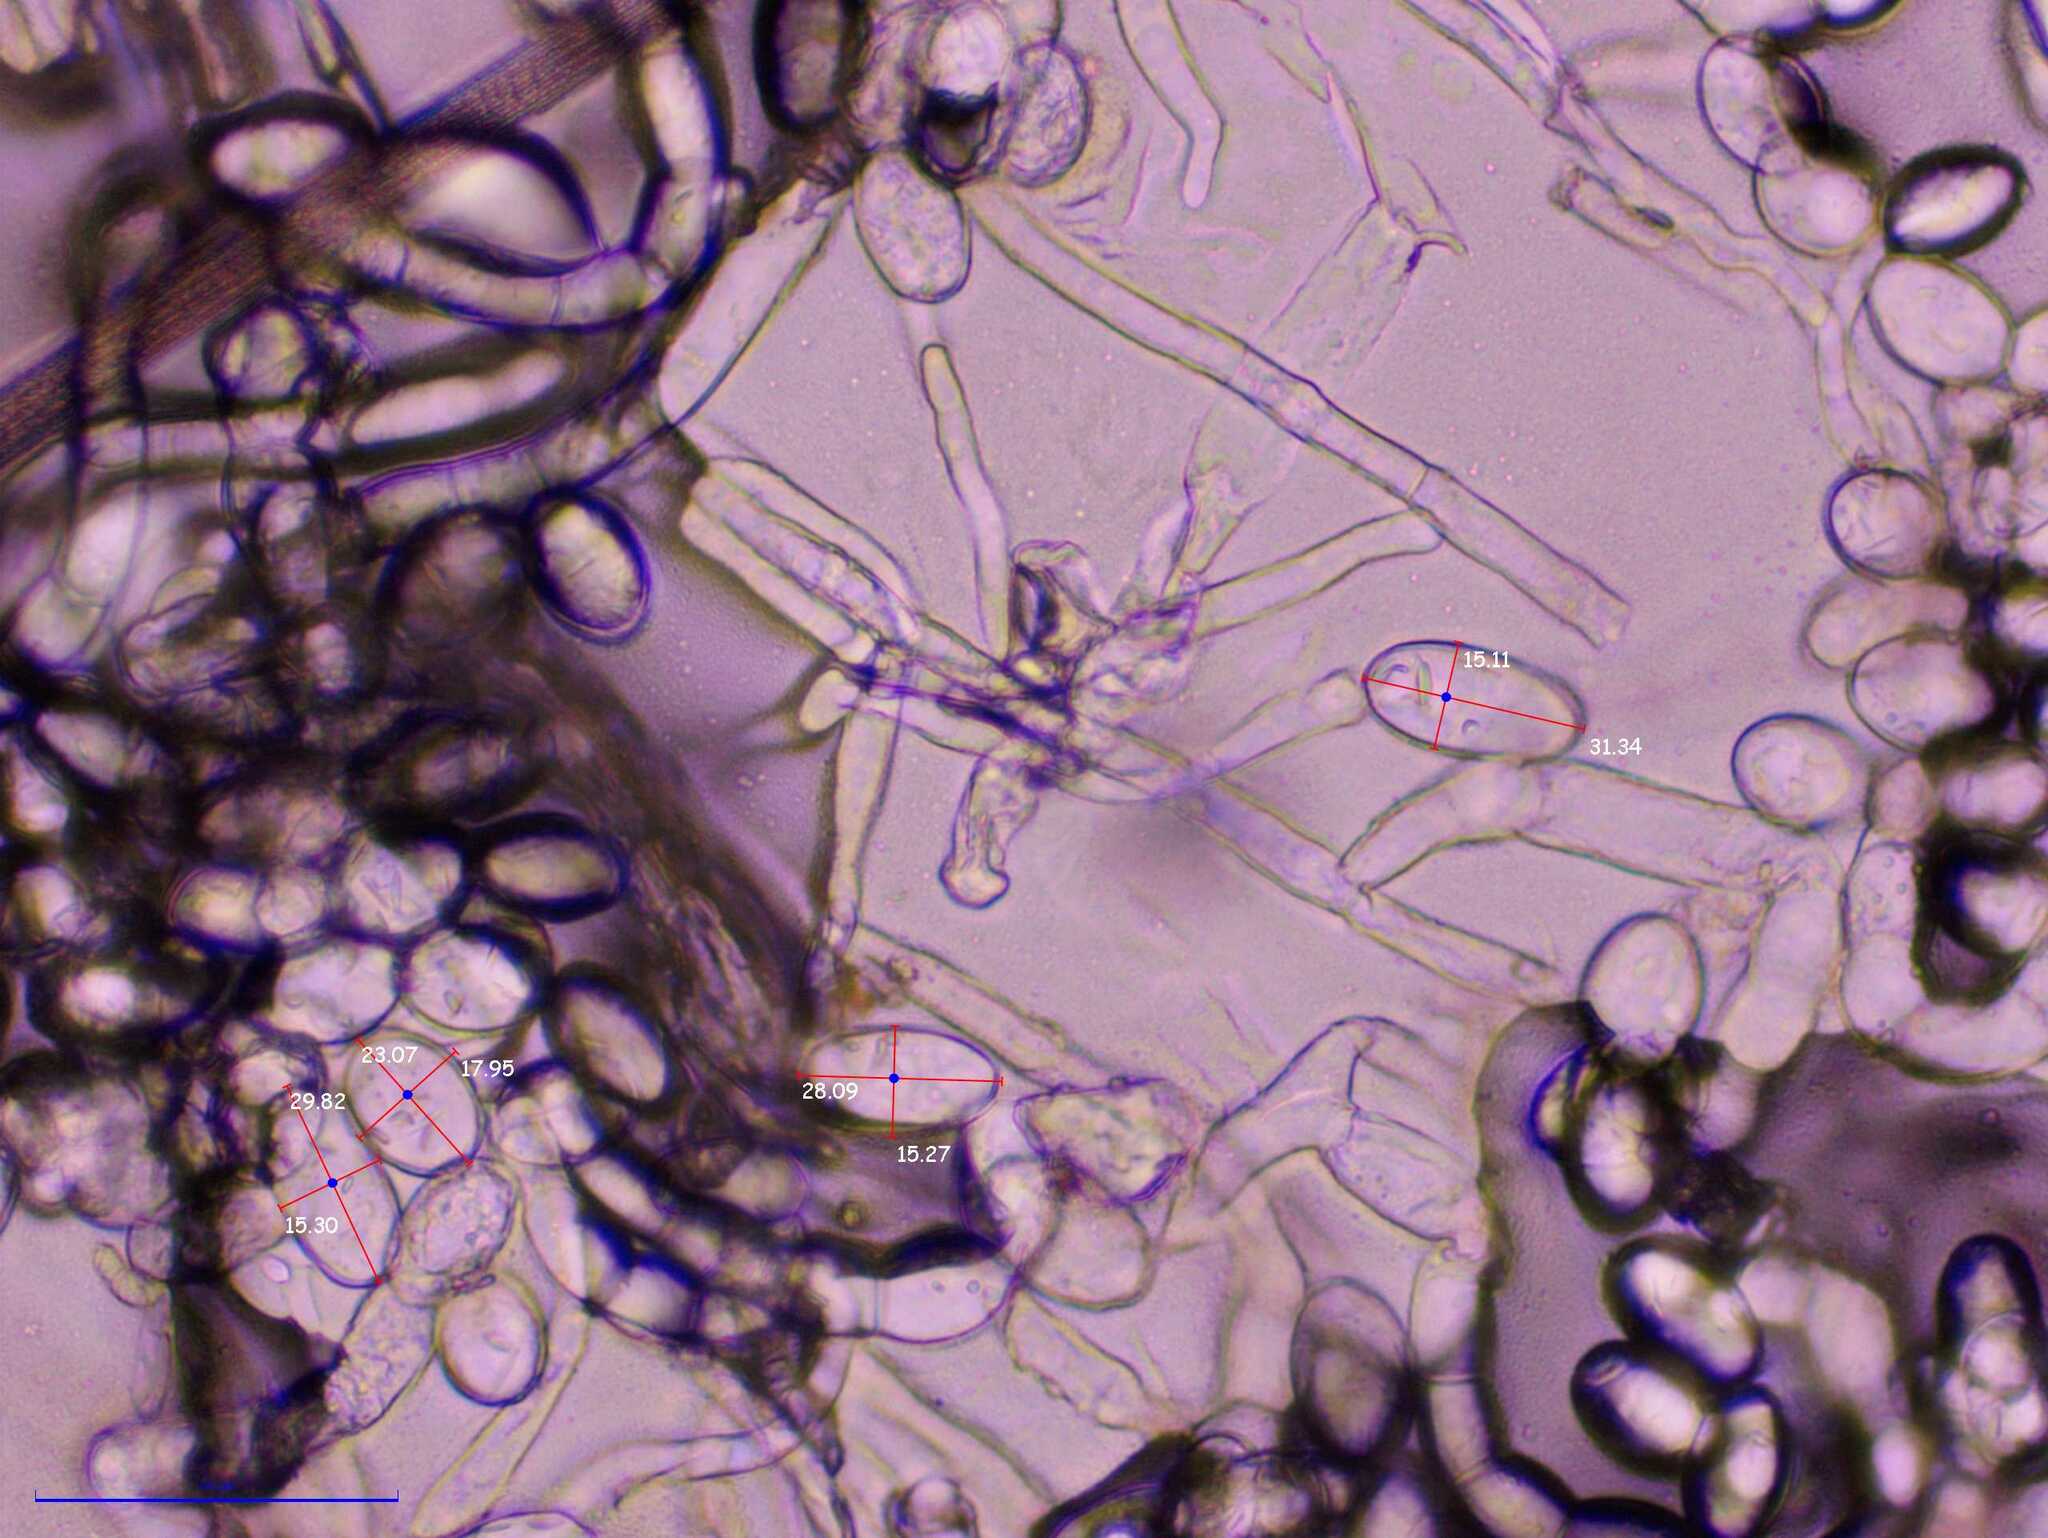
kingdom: Fungi
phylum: Ascomycota
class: Leotiomycetes
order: Helotiales
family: Erysiphaceae
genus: Podosphaera
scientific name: Podosphaera erigerontis-canadensis
